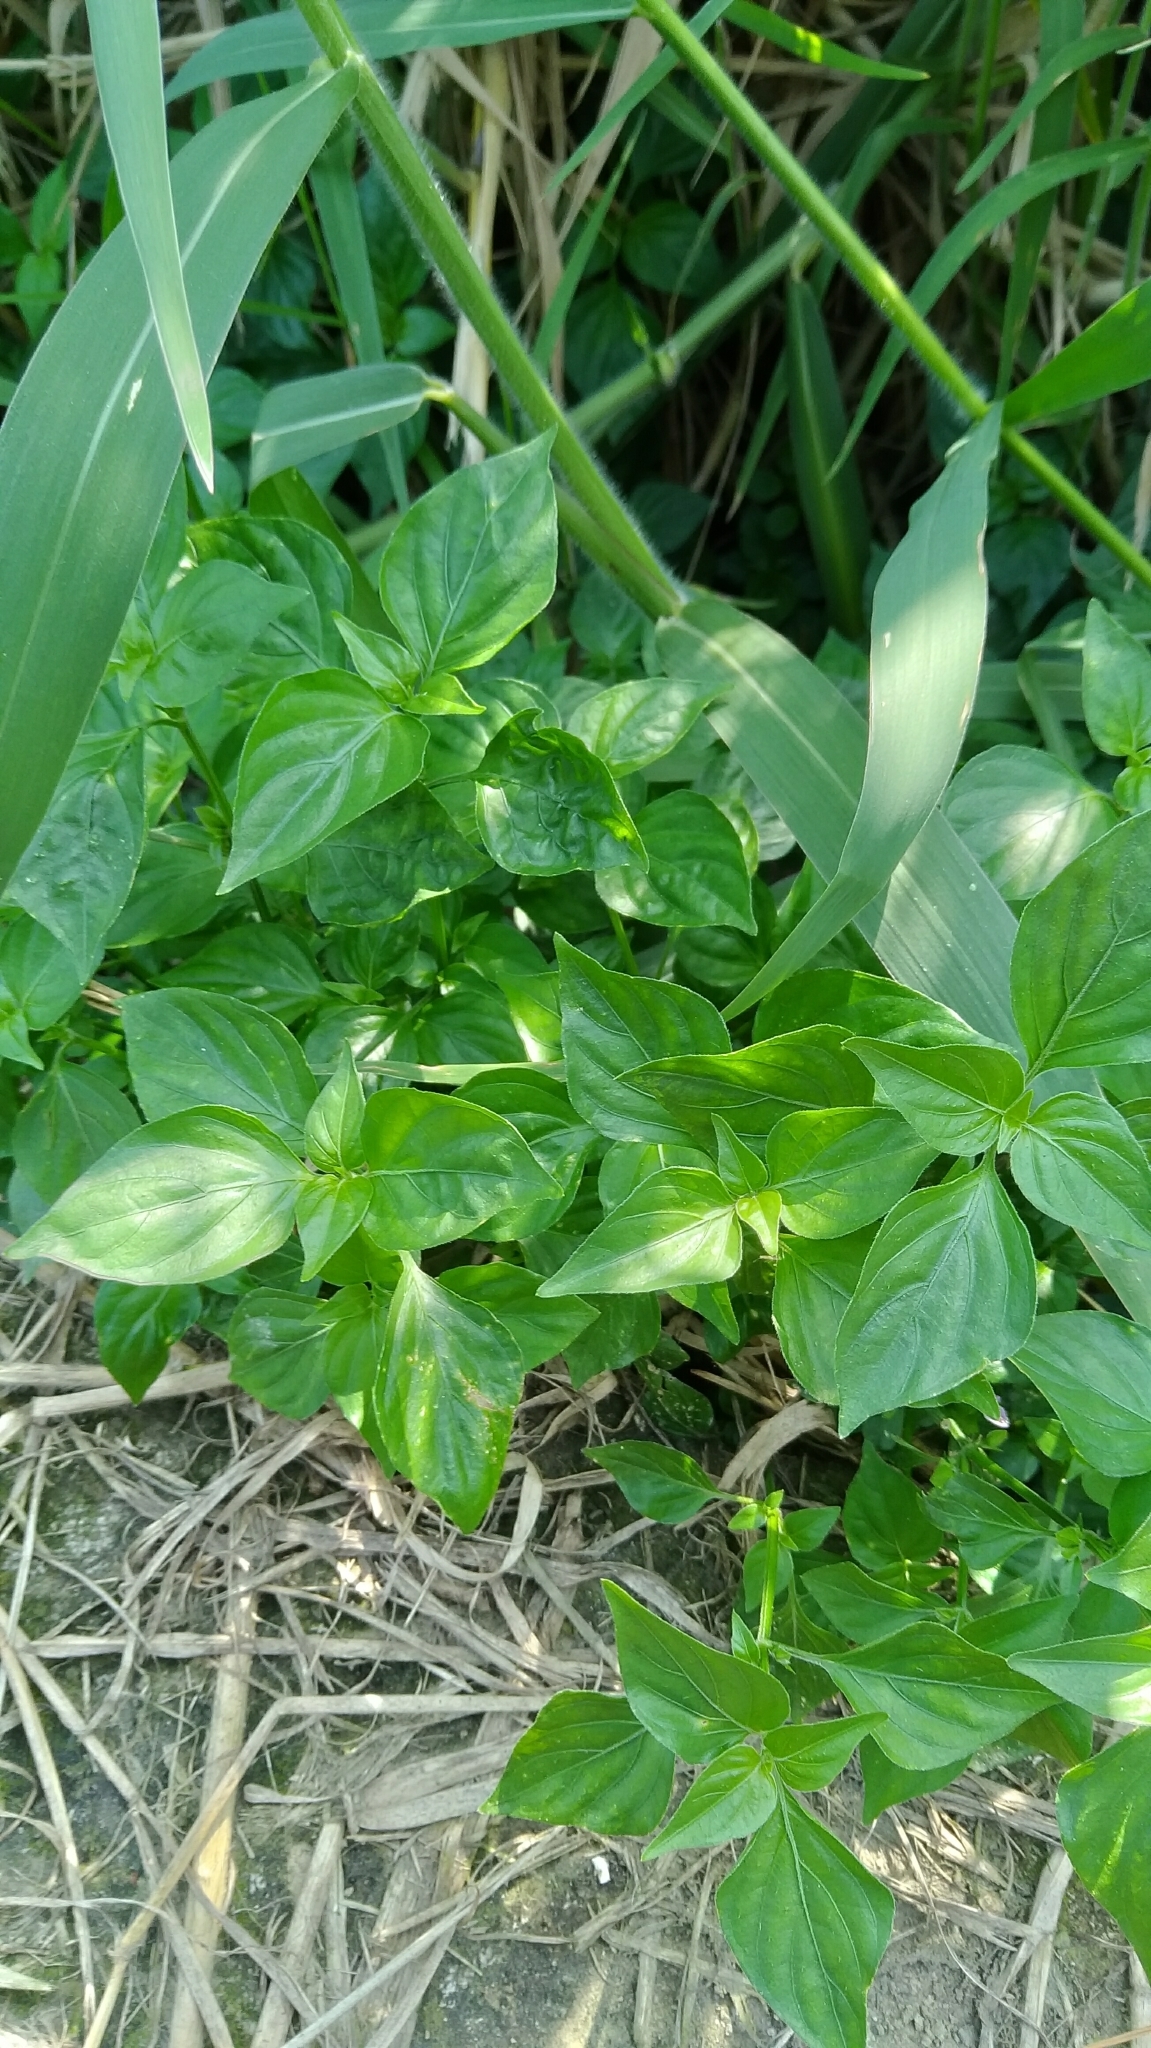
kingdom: Plantae
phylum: Tracheophyta
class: Magnoliopsida
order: Lamiales
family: Acanthaceae
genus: Dicliptera
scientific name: Dicliptera chinensis
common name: Chinese foldwing
